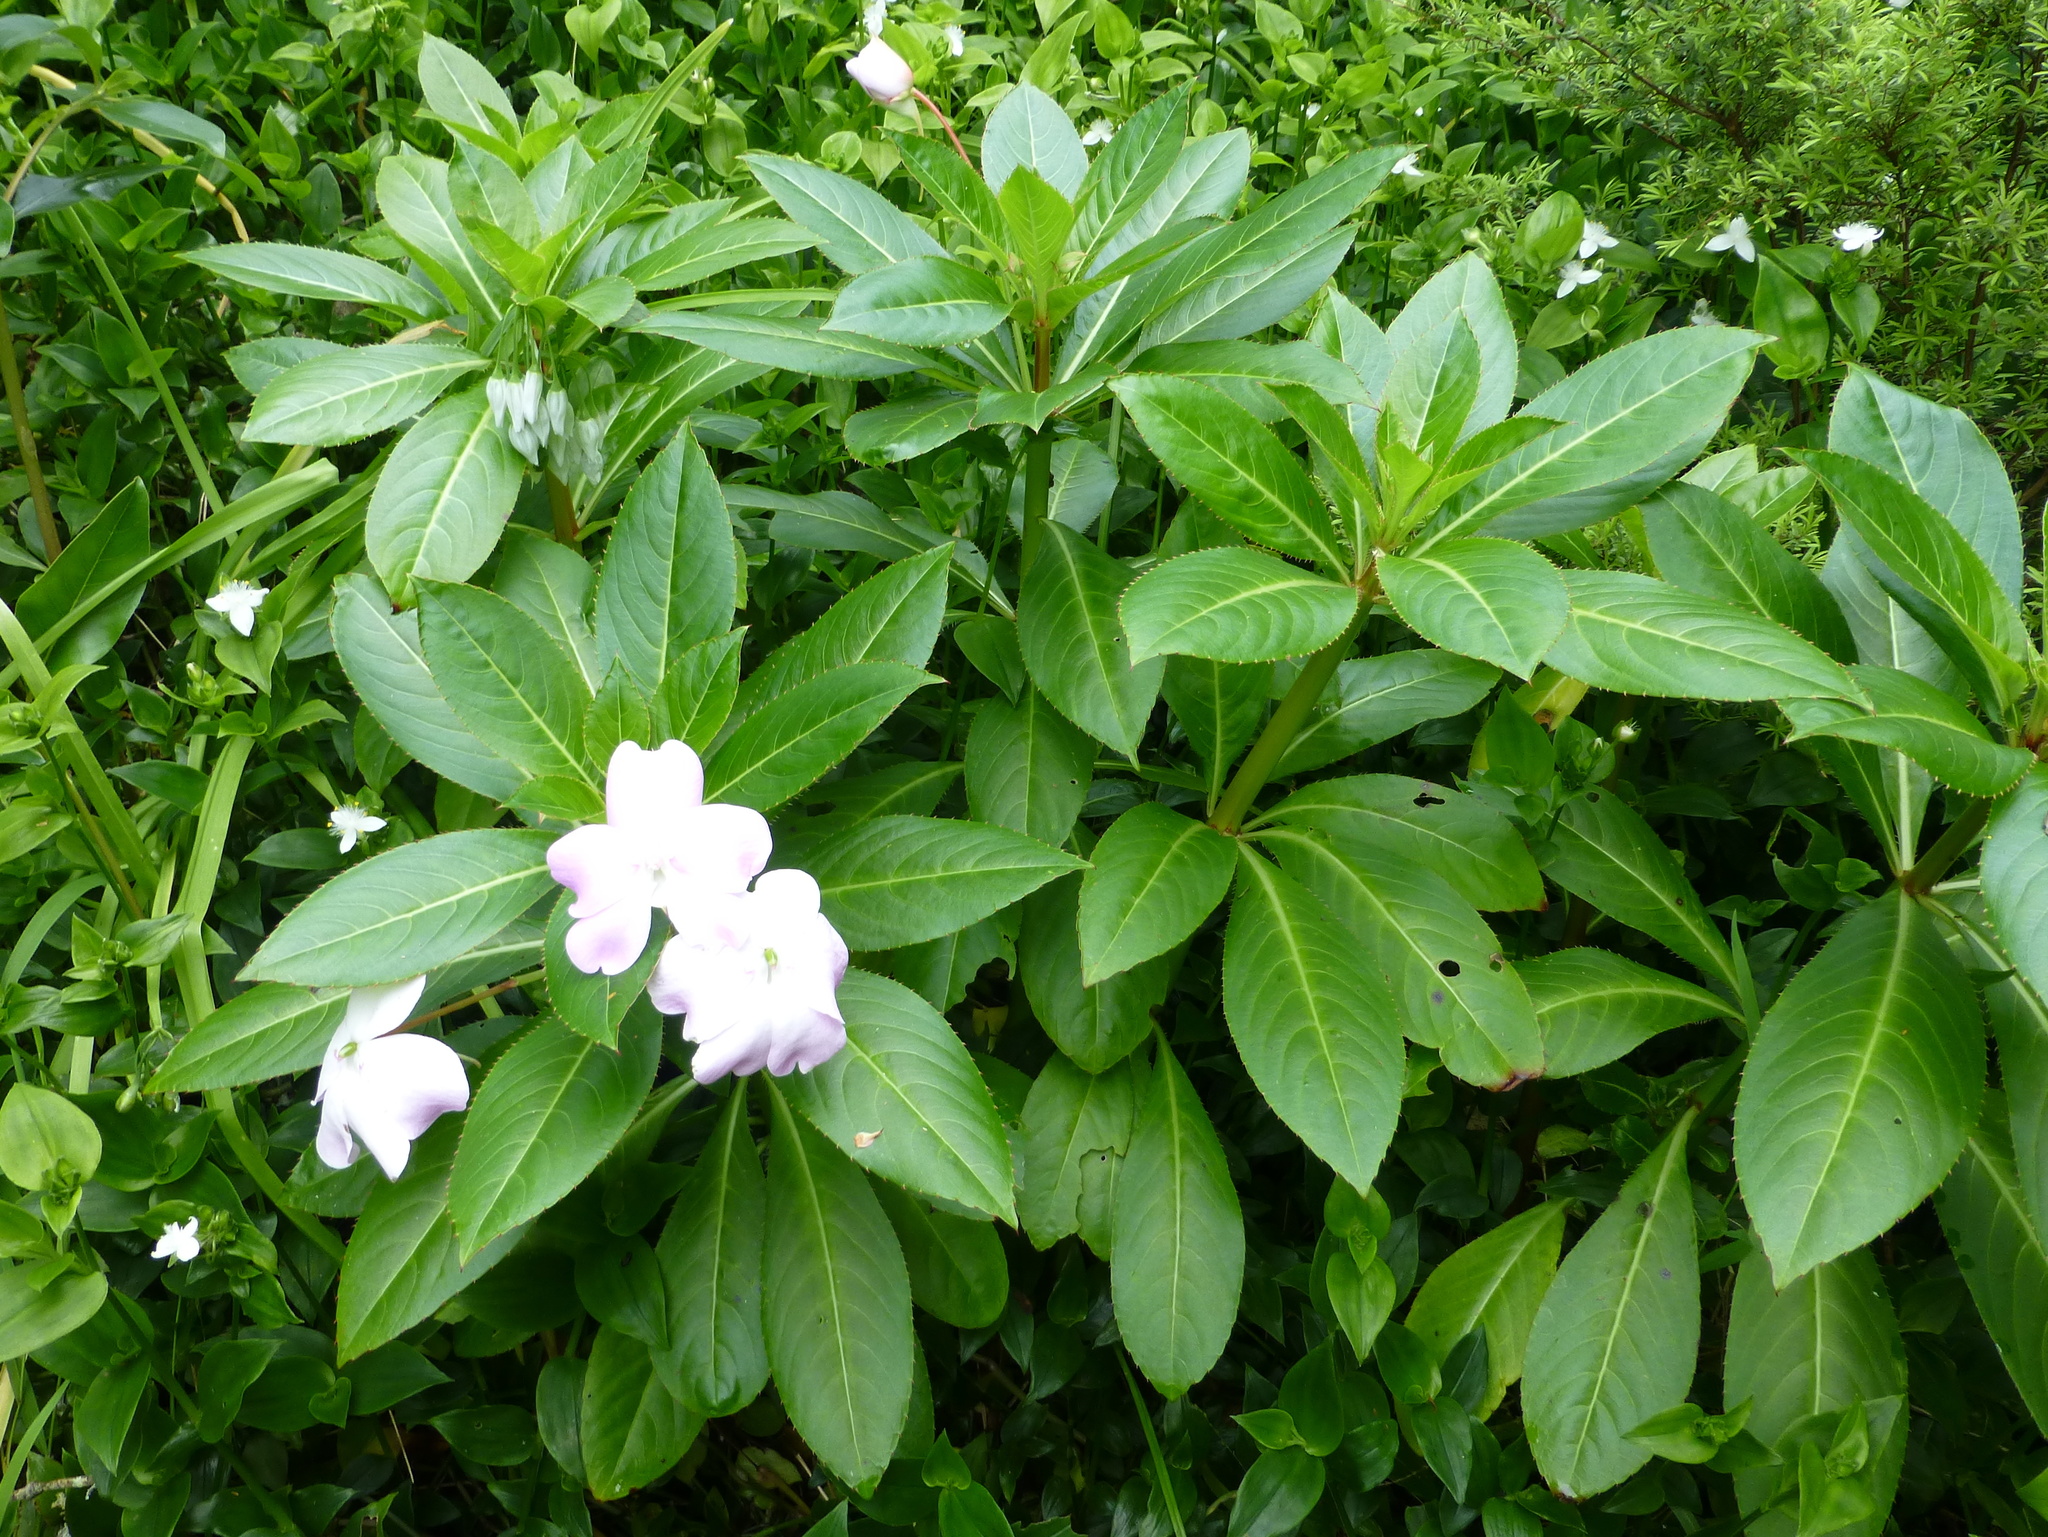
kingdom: Plantae
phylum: Tracheophyta
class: Magnoliopsida
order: Ericales
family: Balsaminaceae
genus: Impatiens
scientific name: Impatiens sodenii
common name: Oliver's touch-me-not
